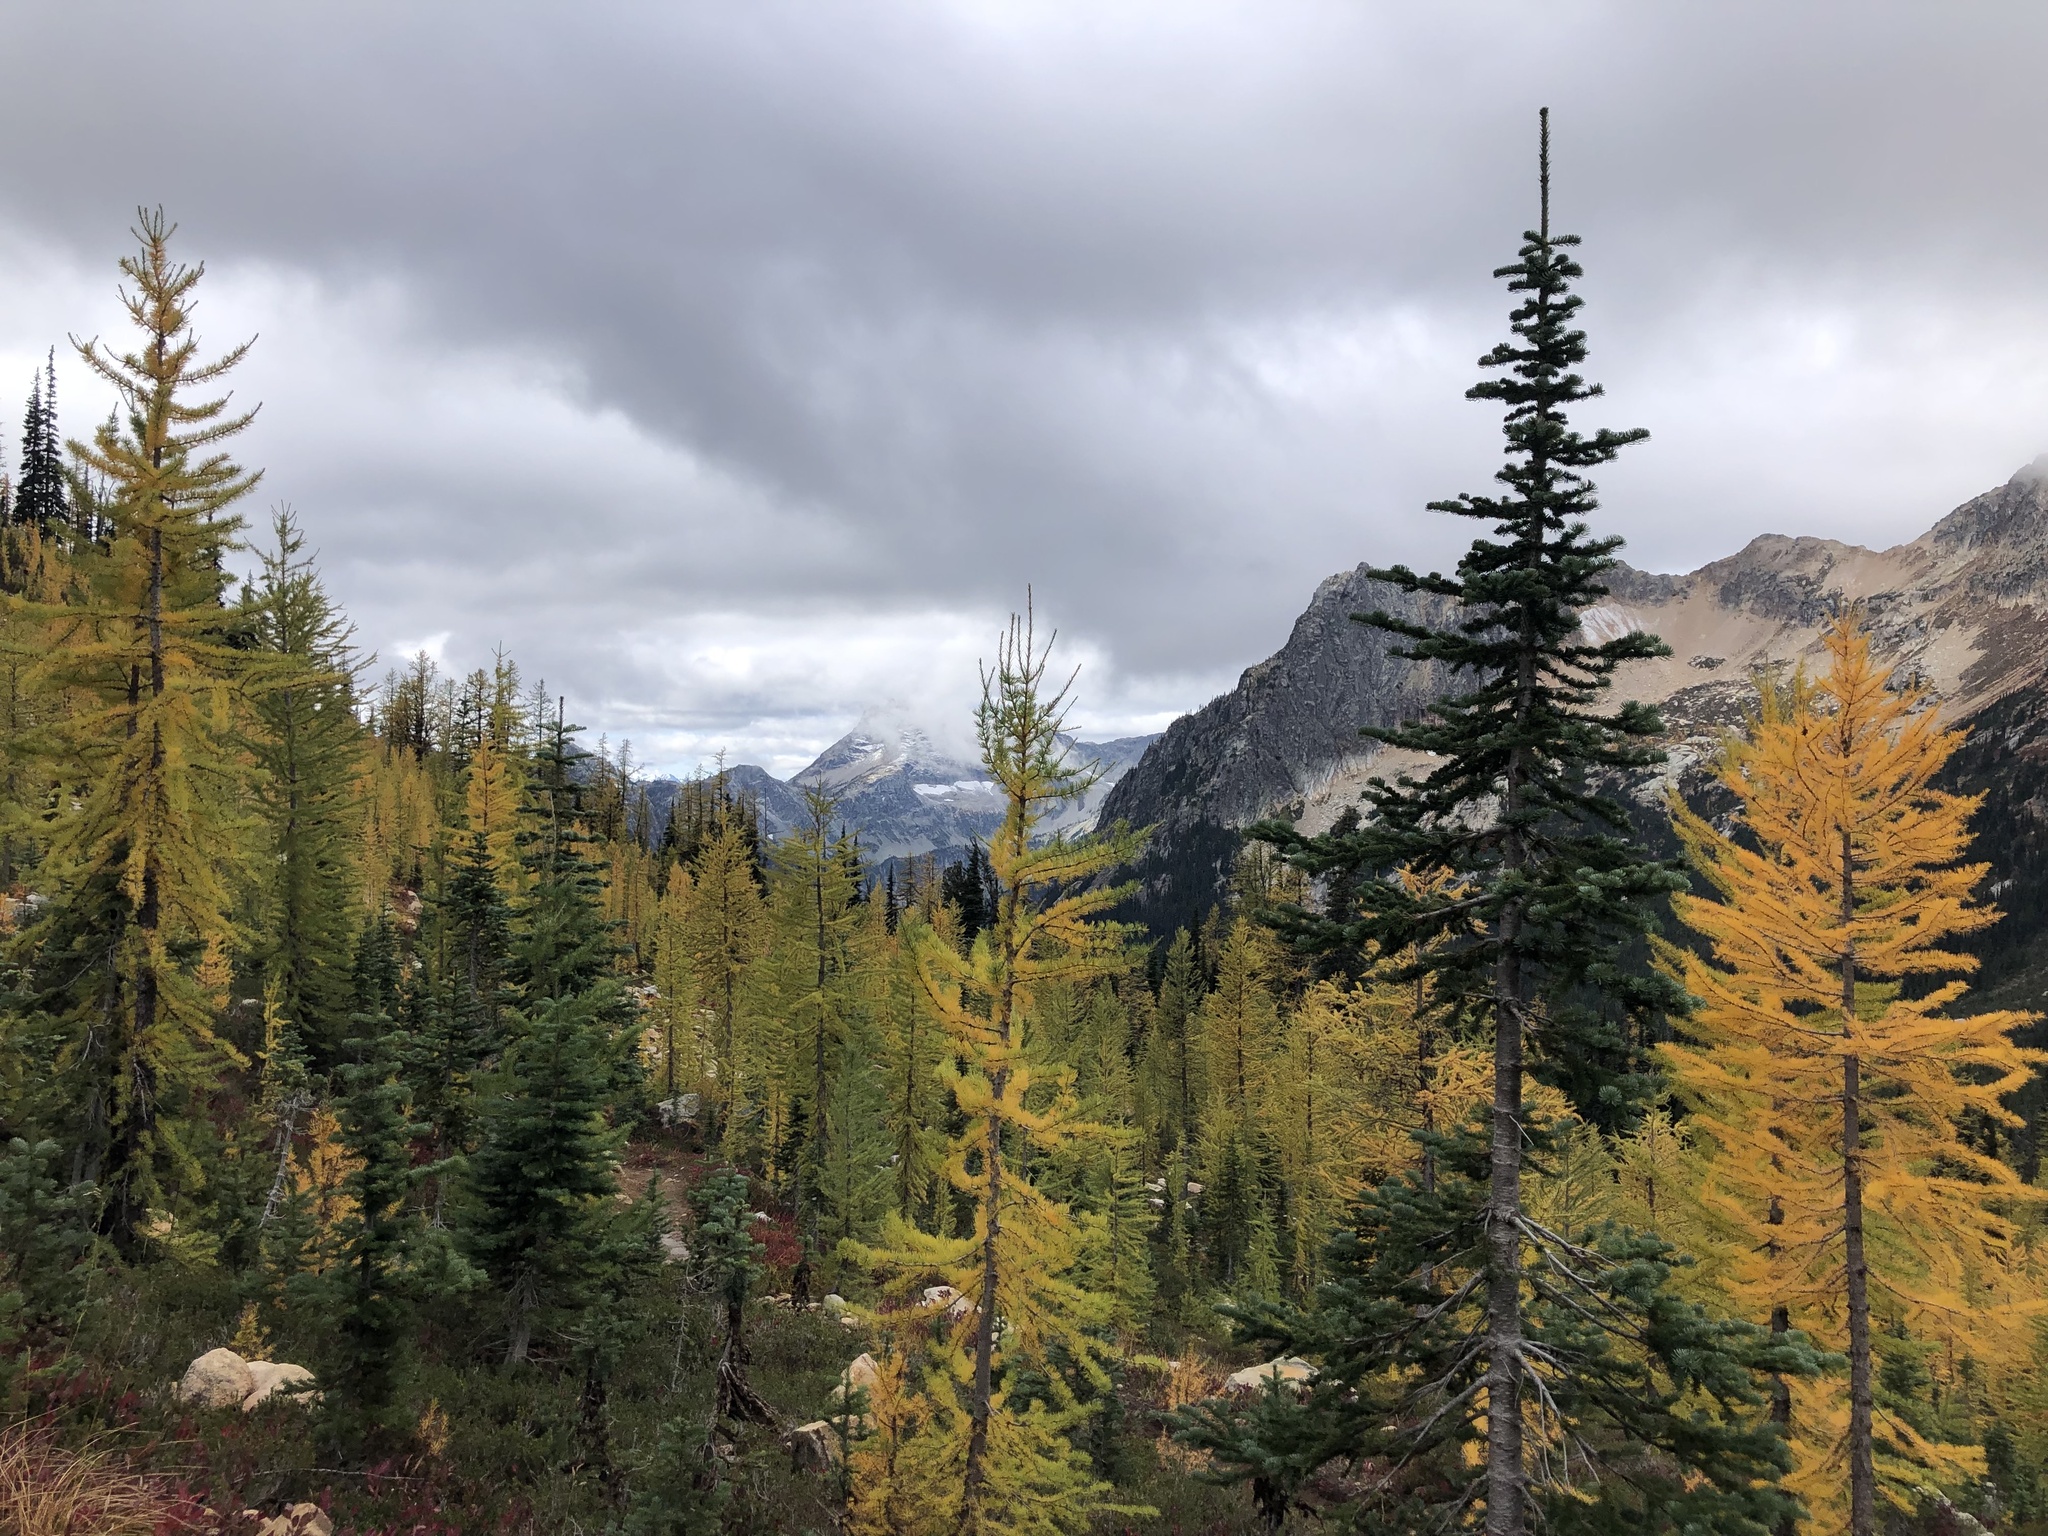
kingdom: Plantae
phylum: Tracheophyta
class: Pinopsida
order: Pinales
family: Pinaceae
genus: Larix
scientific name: Larix lyallii
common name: Alpine larch
